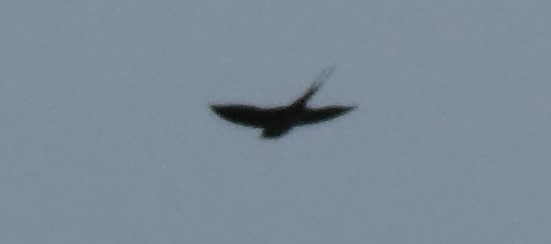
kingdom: Animalia
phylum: Chordata
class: Aves
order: Passeriformes
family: Hirundinidae
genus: Hirundo
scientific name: Hirundo rustica
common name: Barn swallow
